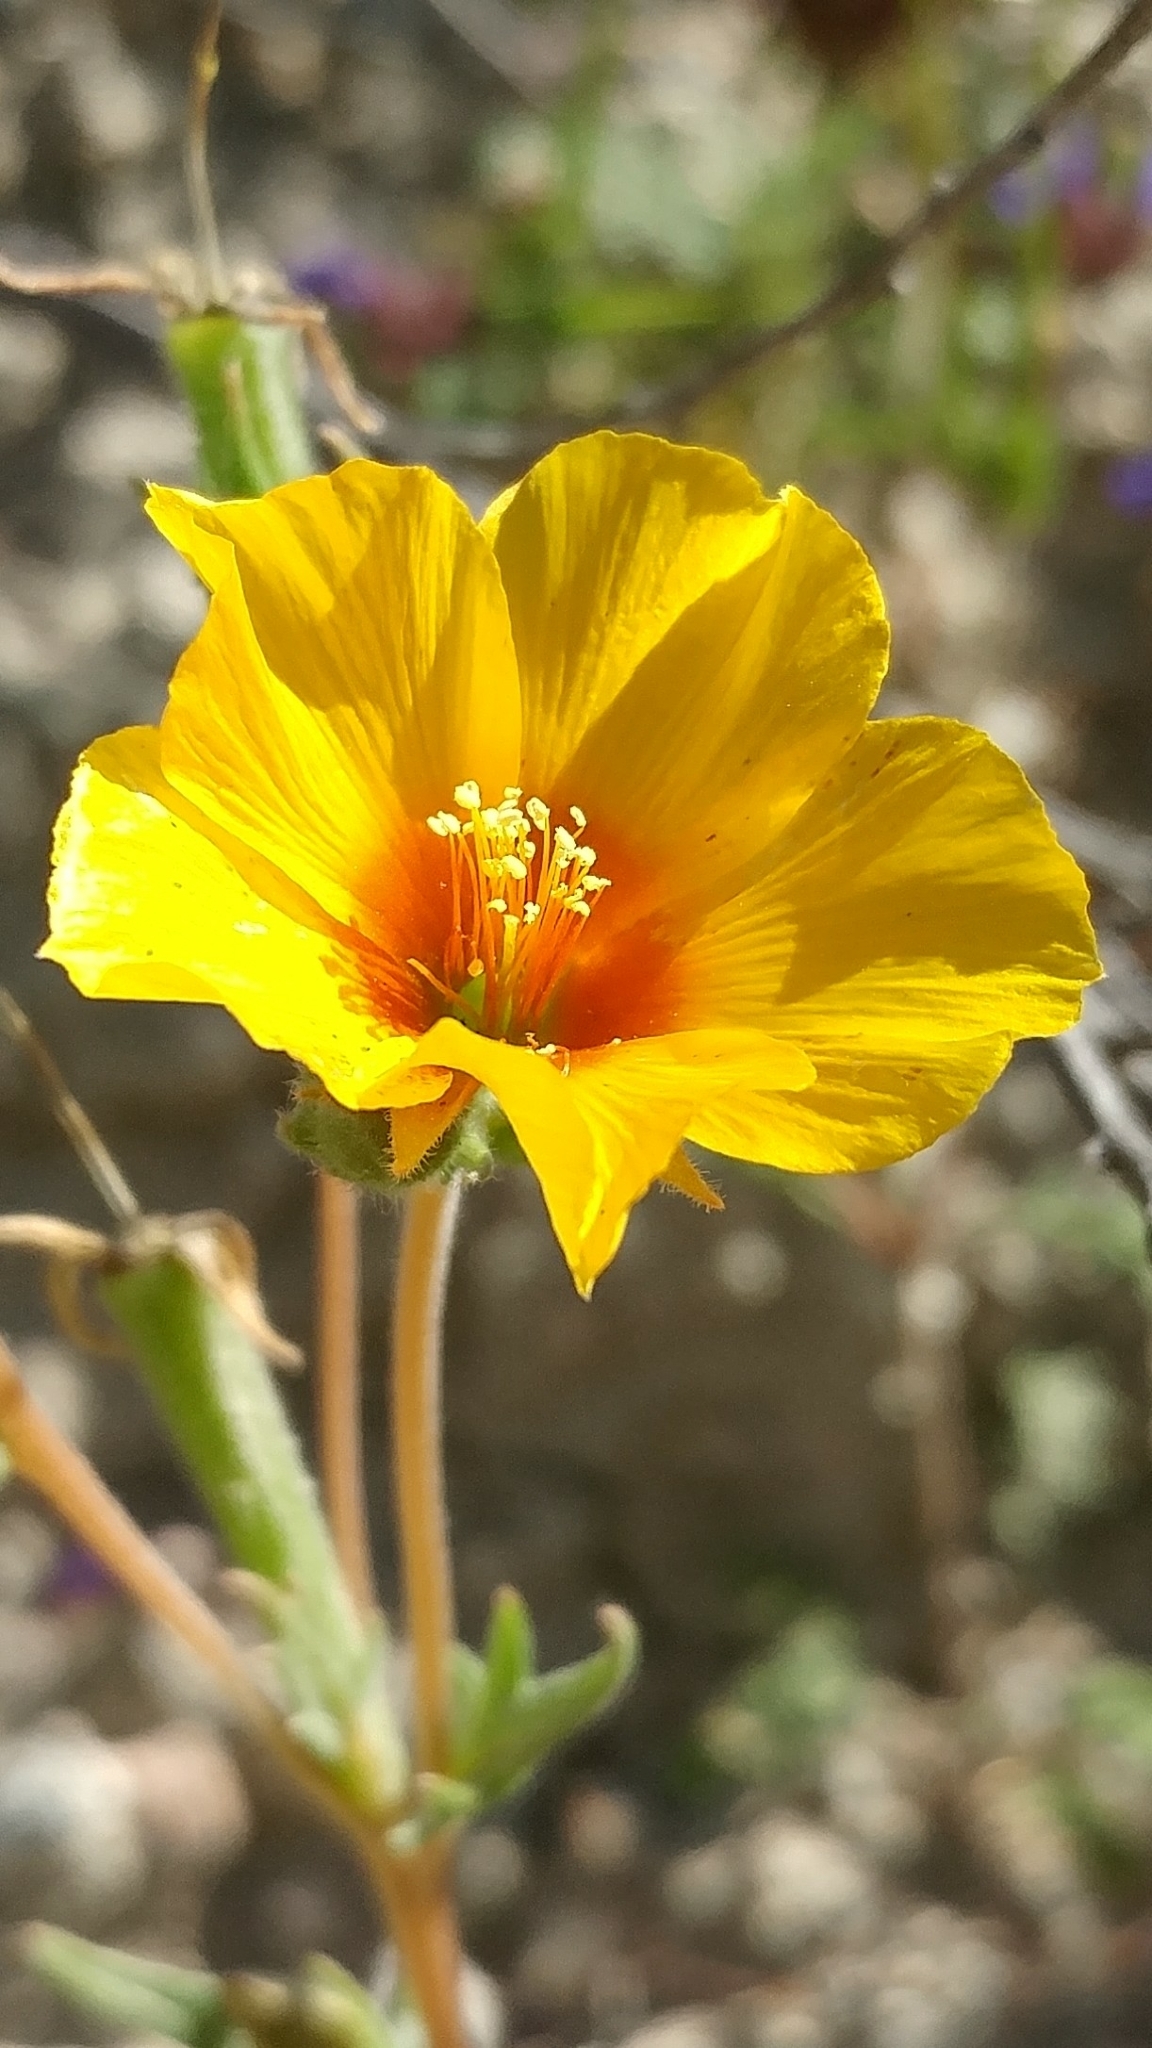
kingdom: Plantae
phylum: Tracheophyta
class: Magnoliopsida
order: Cornales
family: Loasaceae
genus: Mentzelia
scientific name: Mentzelia lindleyi
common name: Golden bartonia
